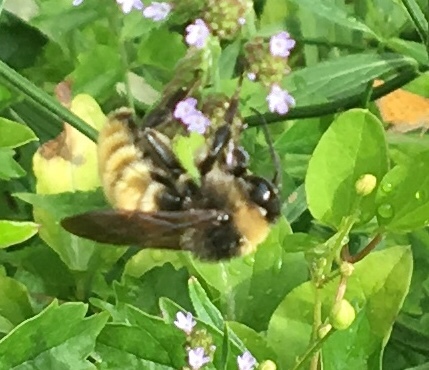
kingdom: Animalia
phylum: Arthropoda
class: Insecta
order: Hymenoptera
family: Apidae
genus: Bombus
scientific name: Bombus pensylvanicus
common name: Bumble bee
